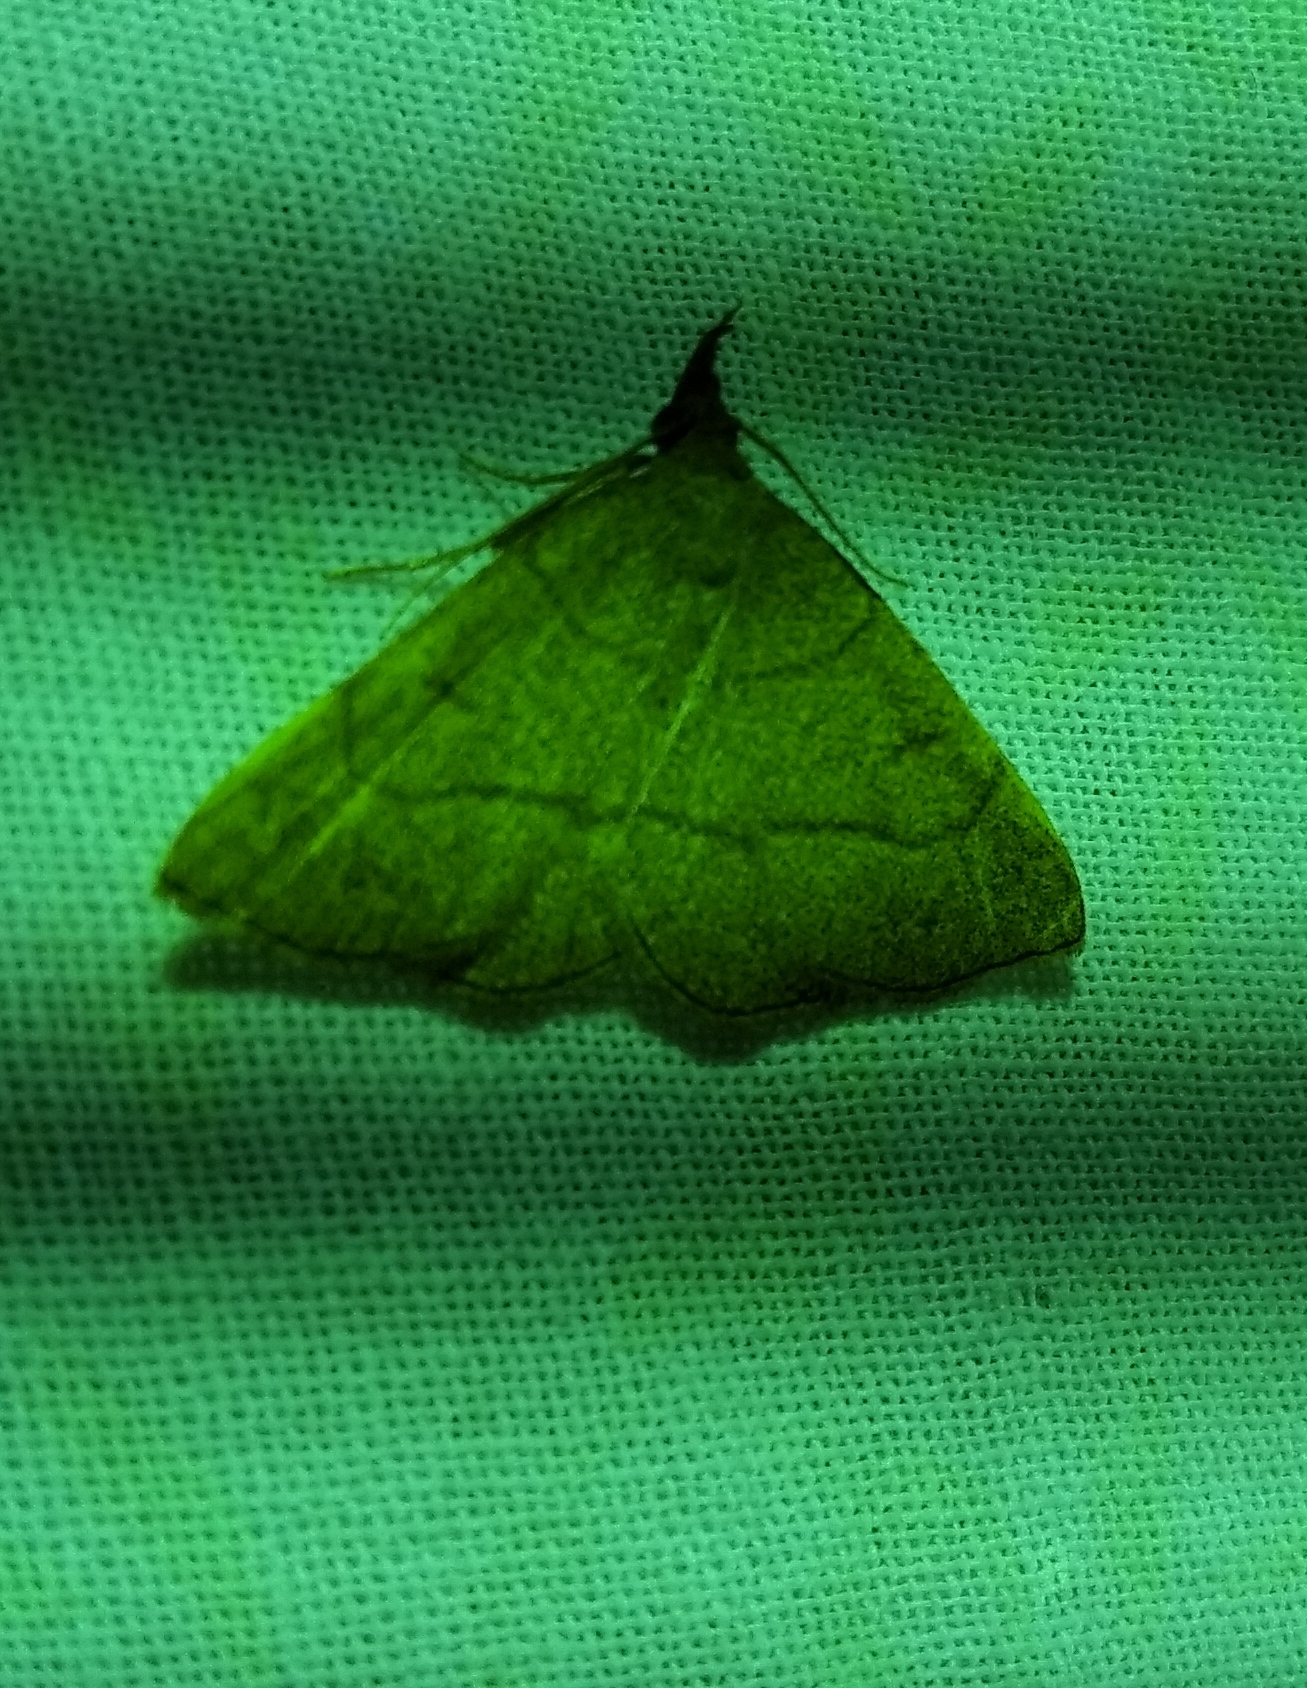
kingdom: Animalia
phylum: Arthropoda
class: Insecta
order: Lepidoptera
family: Erebidae
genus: Paracolax
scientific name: Paracolax tristalis
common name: Clay fan-foot
